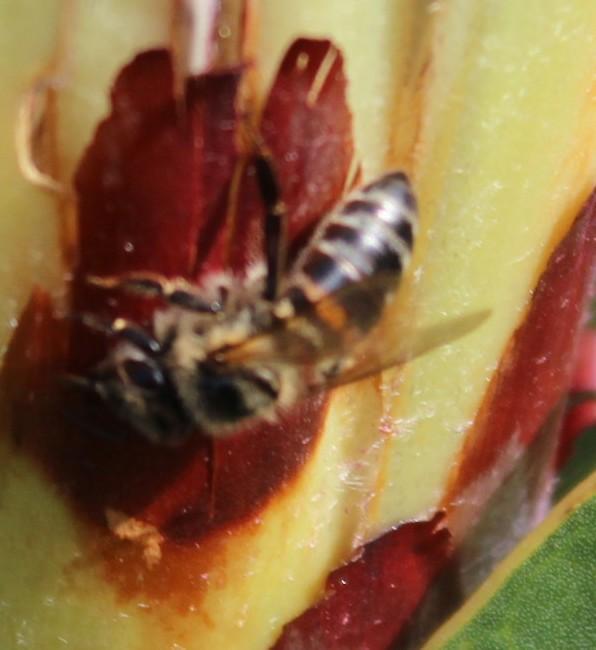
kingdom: Animalia
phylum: Arthropoda
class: Insecta
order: Hymenoptera
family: Apidae
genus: Apis
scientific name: Apis mellifera
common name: Honey bee
